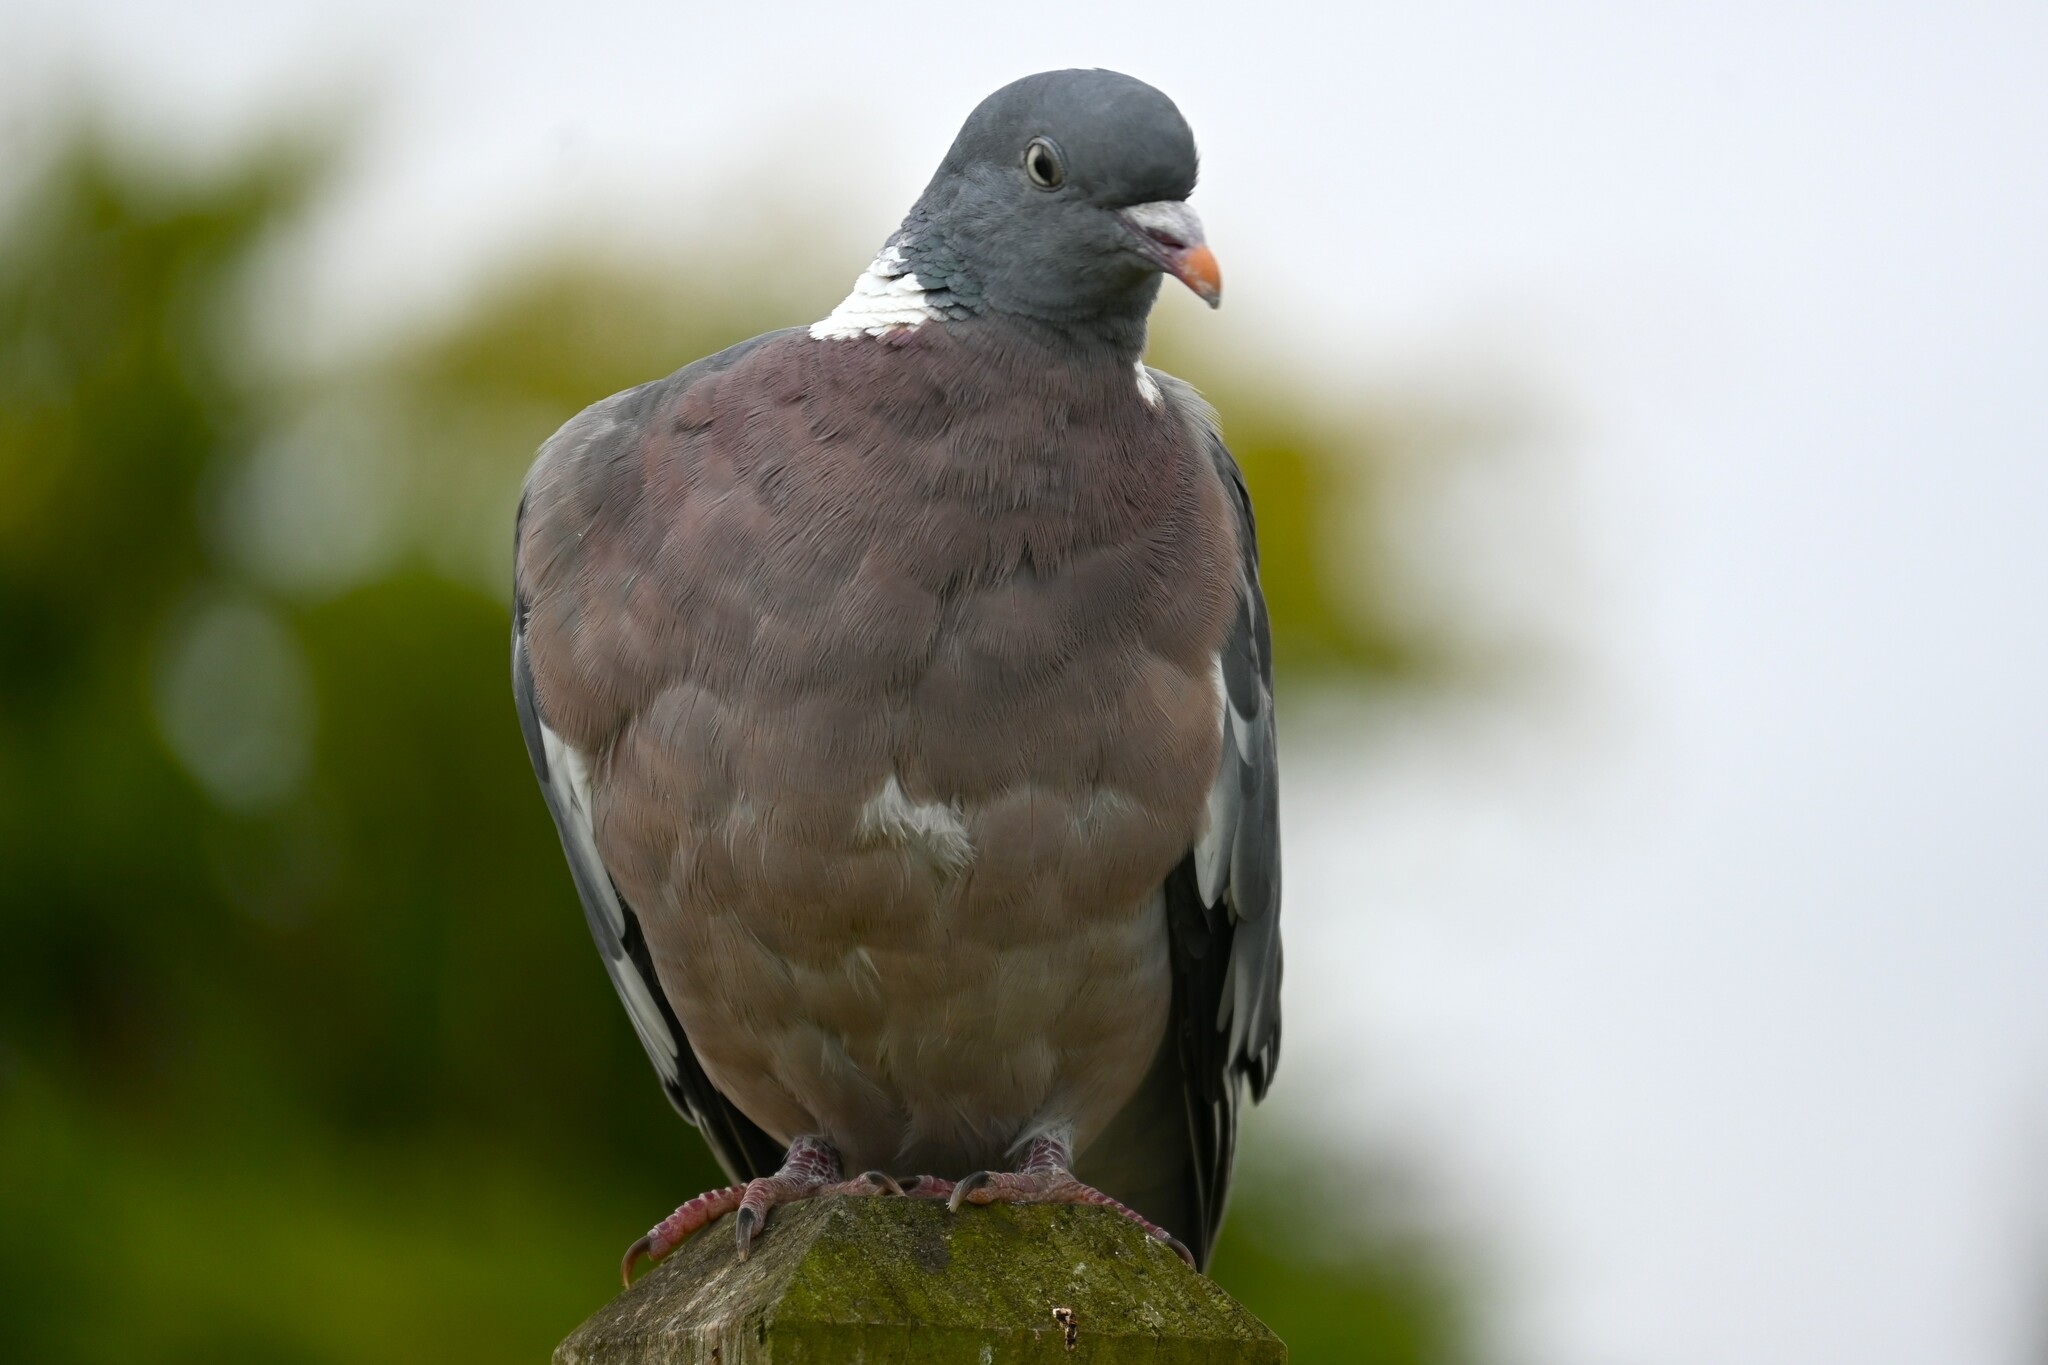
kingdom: Animalia
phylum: Chordata
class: Aves
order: Columbiformes
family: Columbidae
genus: Columba
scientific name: Columba palumbus
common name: Common wood pigeon
